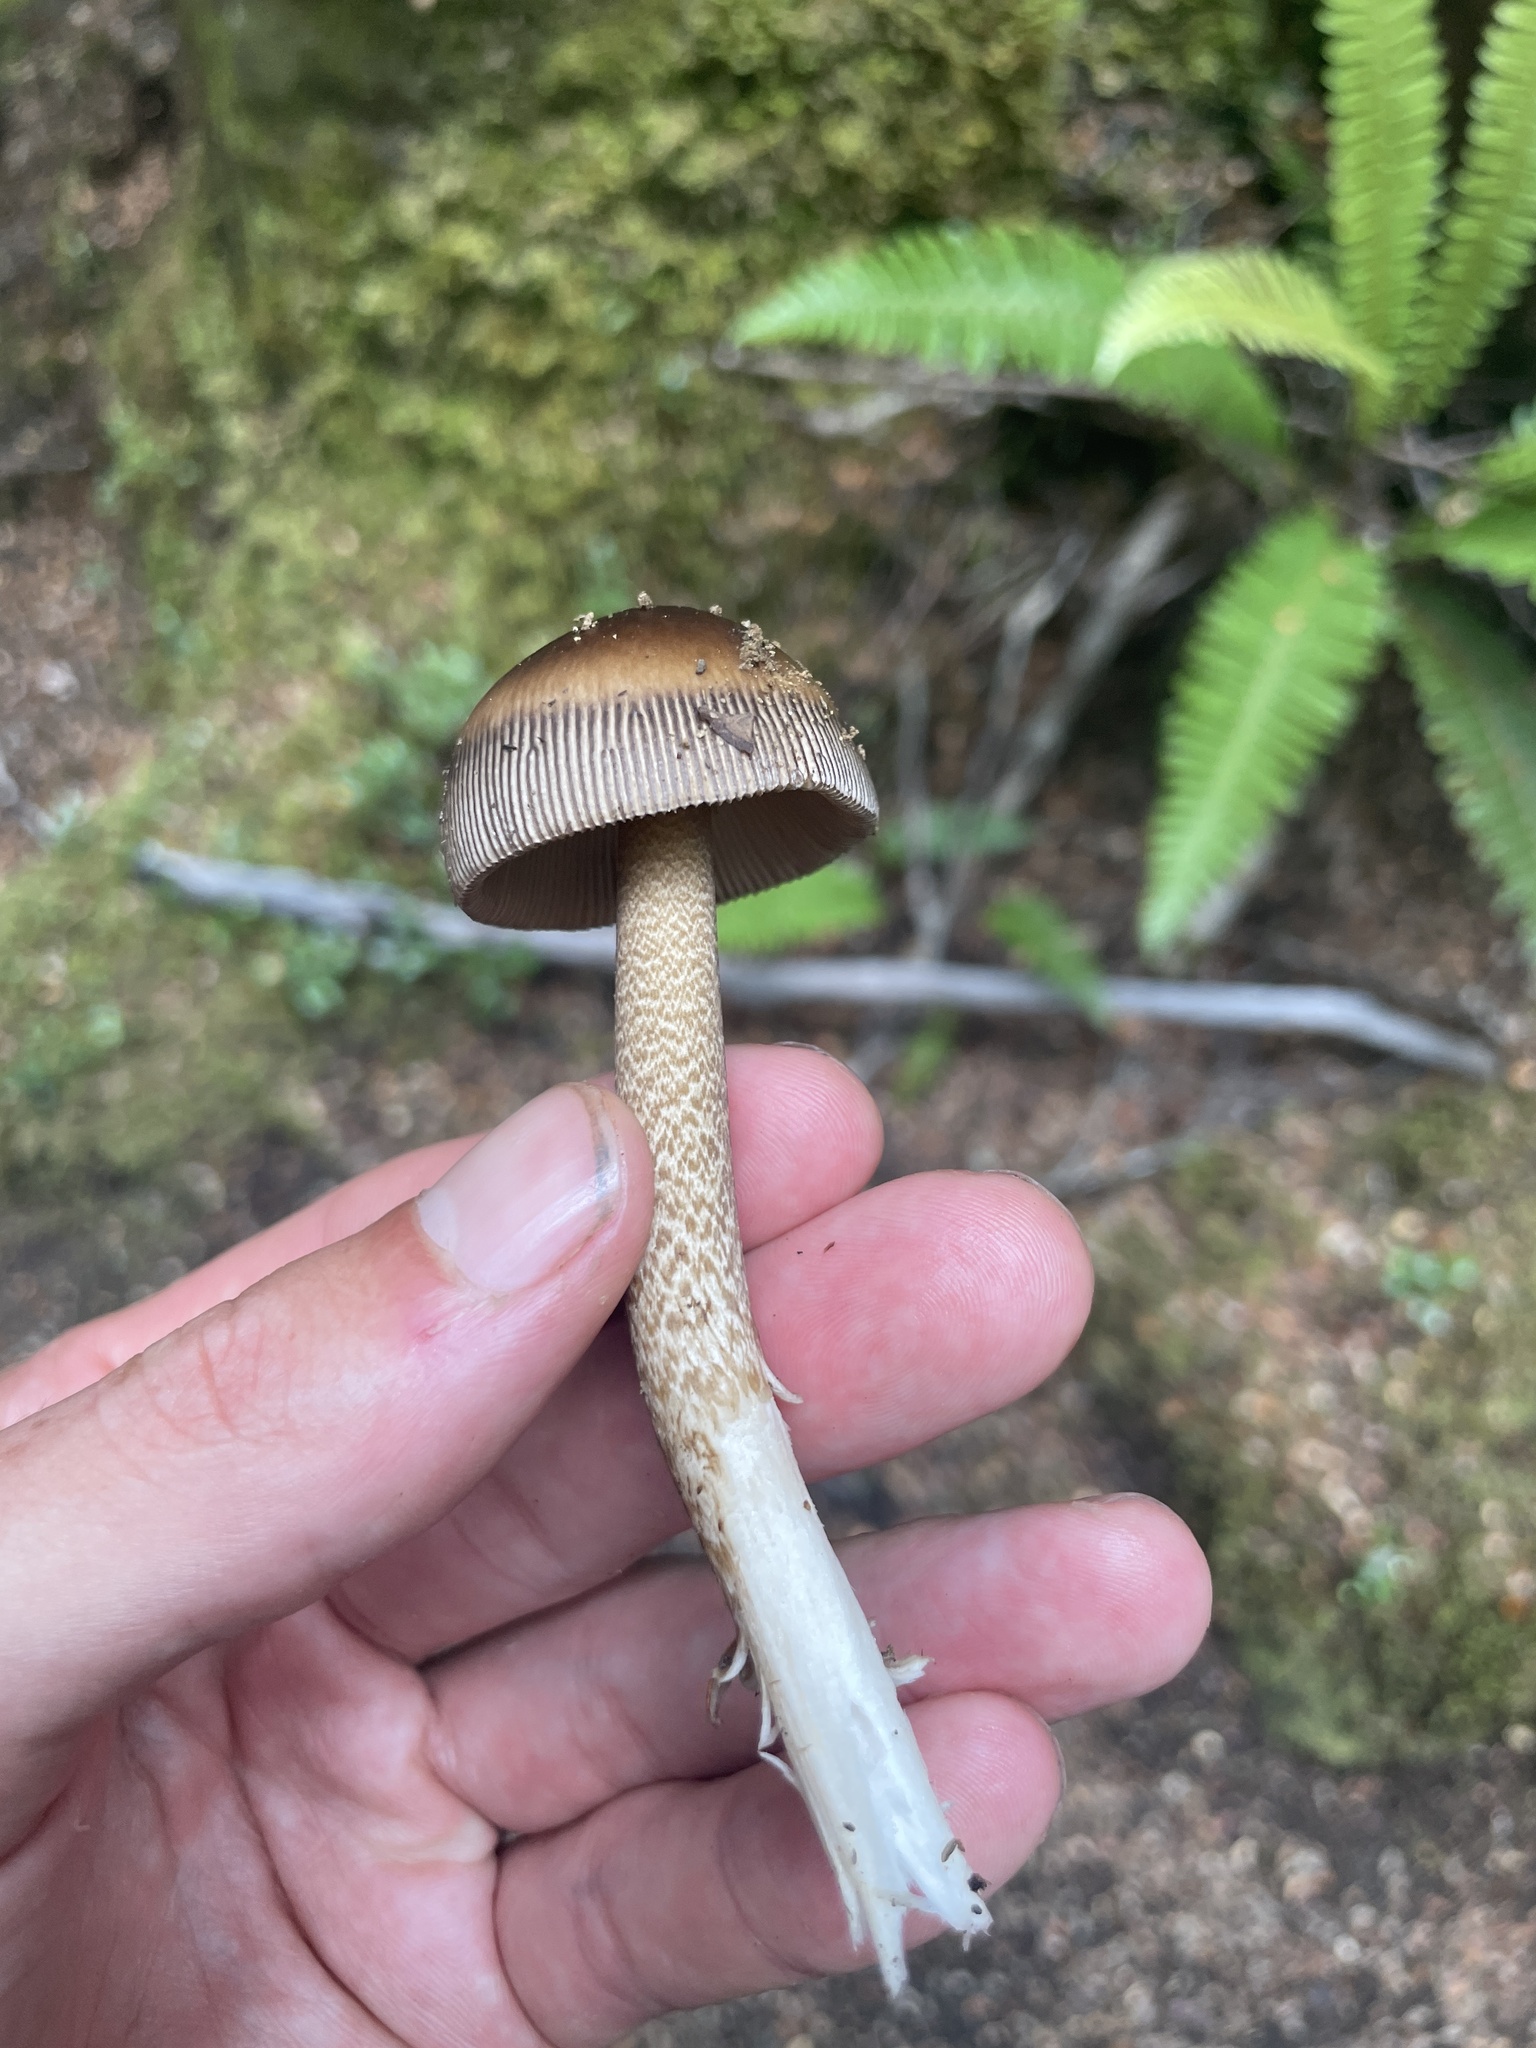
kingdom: Fungi
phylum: Basidiomycota
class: Agaricomycetes
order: Agaricales
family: Amanitaceae
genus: Amanita
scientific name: Amanita pekeoides
